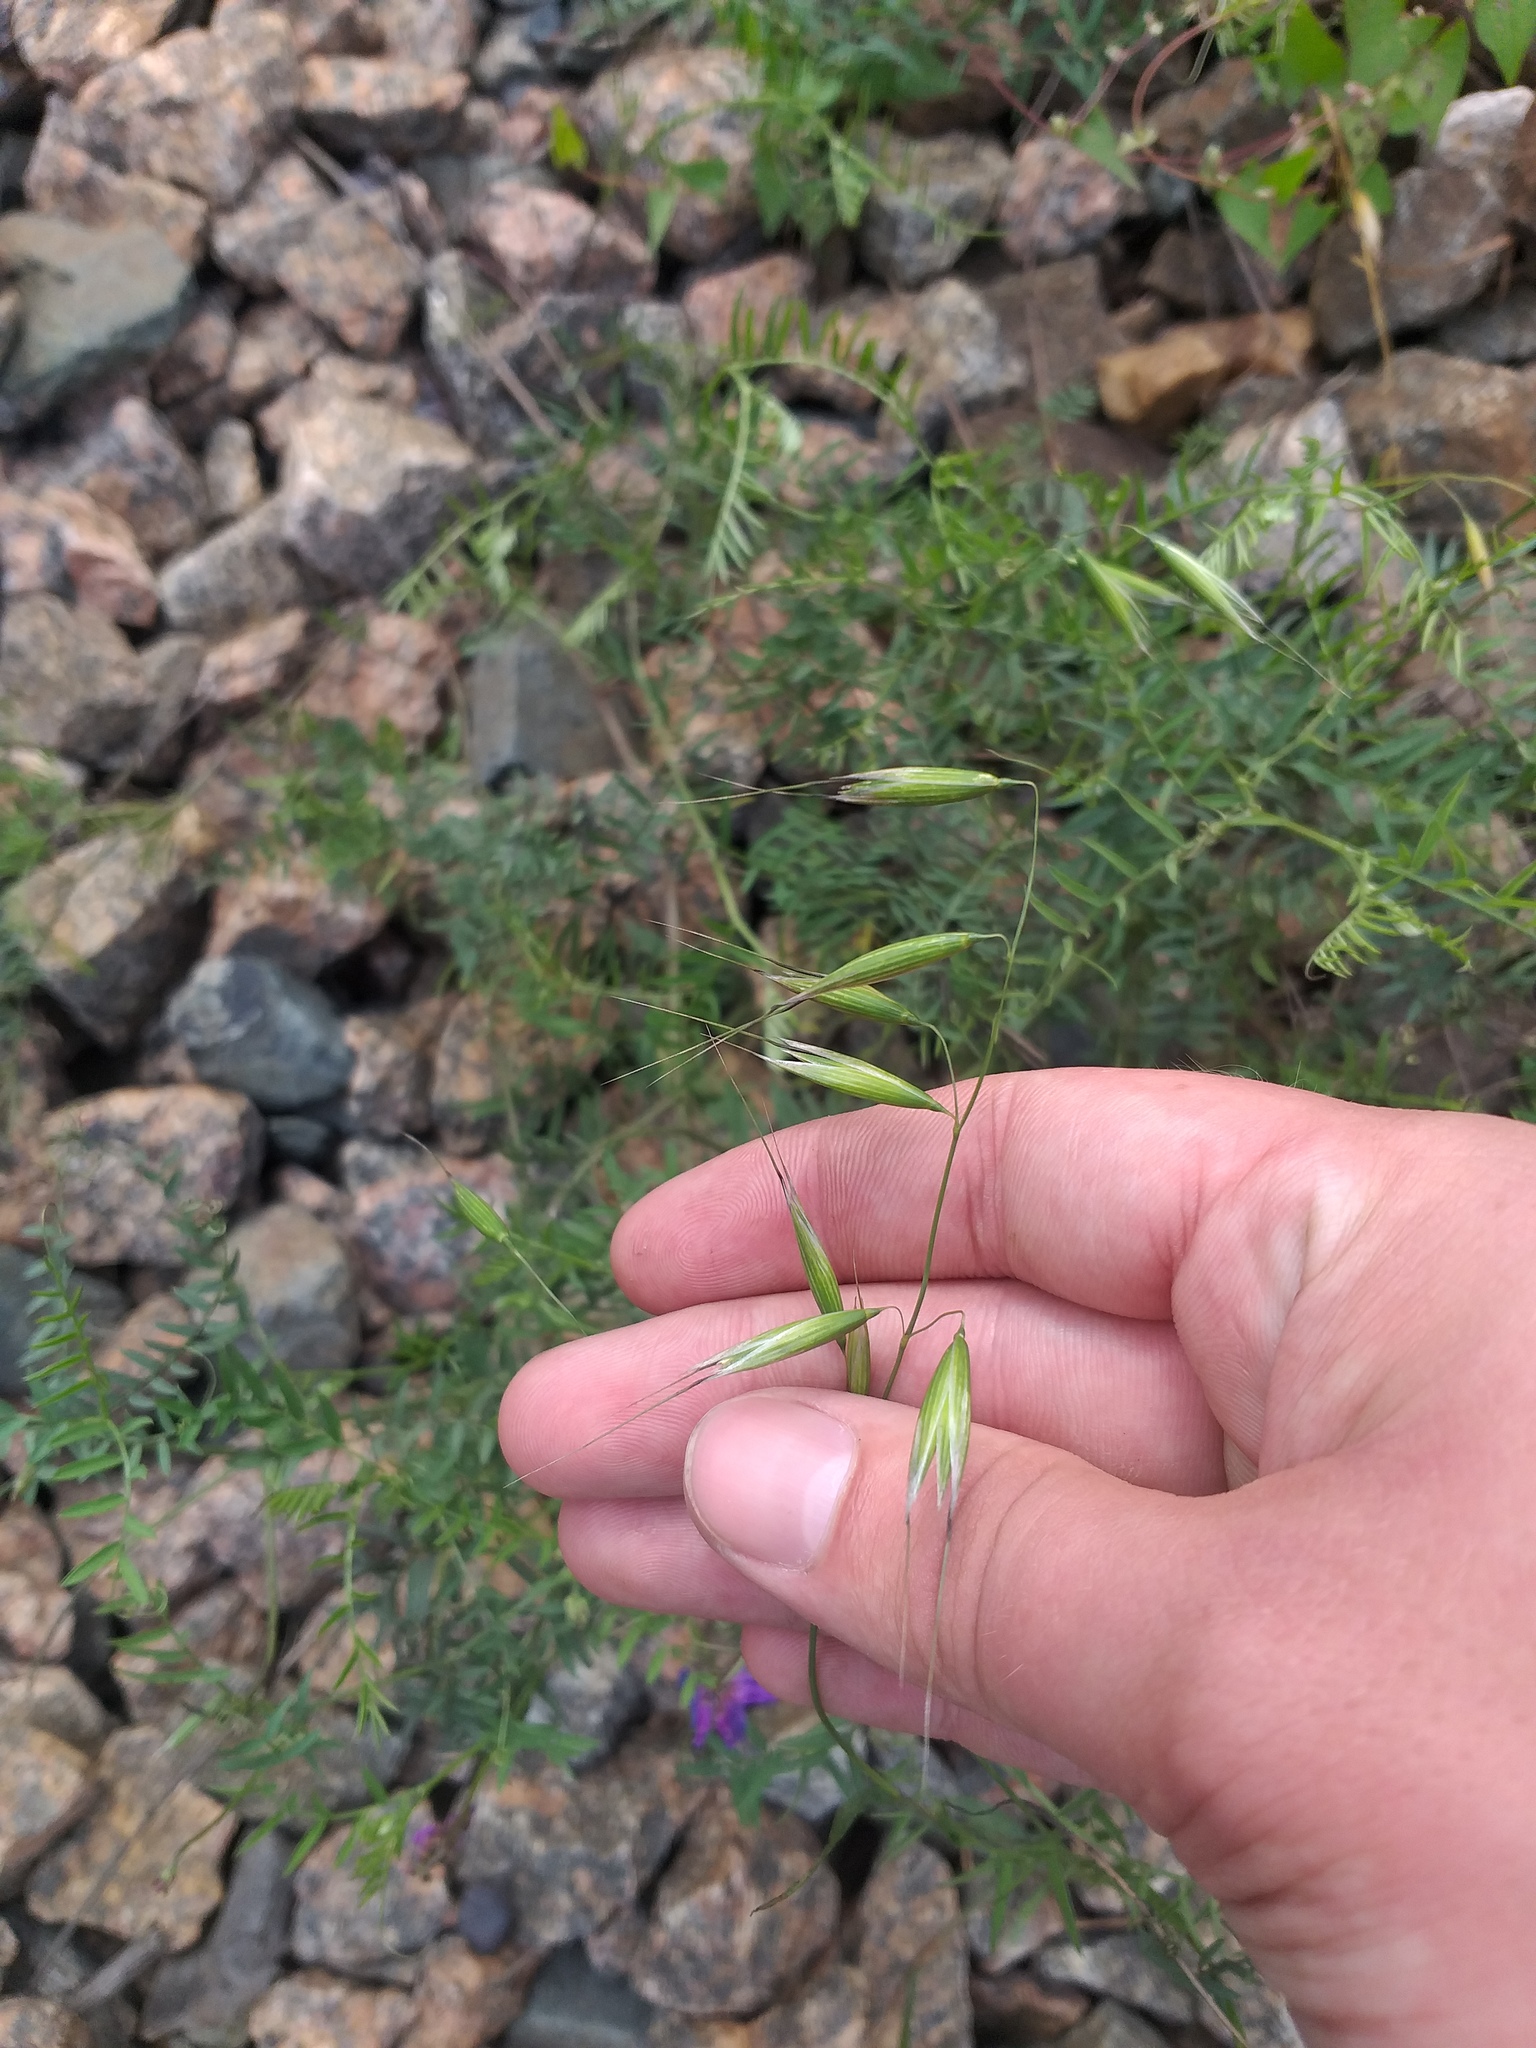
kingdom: Plantae
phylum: Tracheophyta
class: Liliopsida
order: Poales
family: Poaceae
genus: Avena
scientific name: Avena fatua
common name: Wild oat
